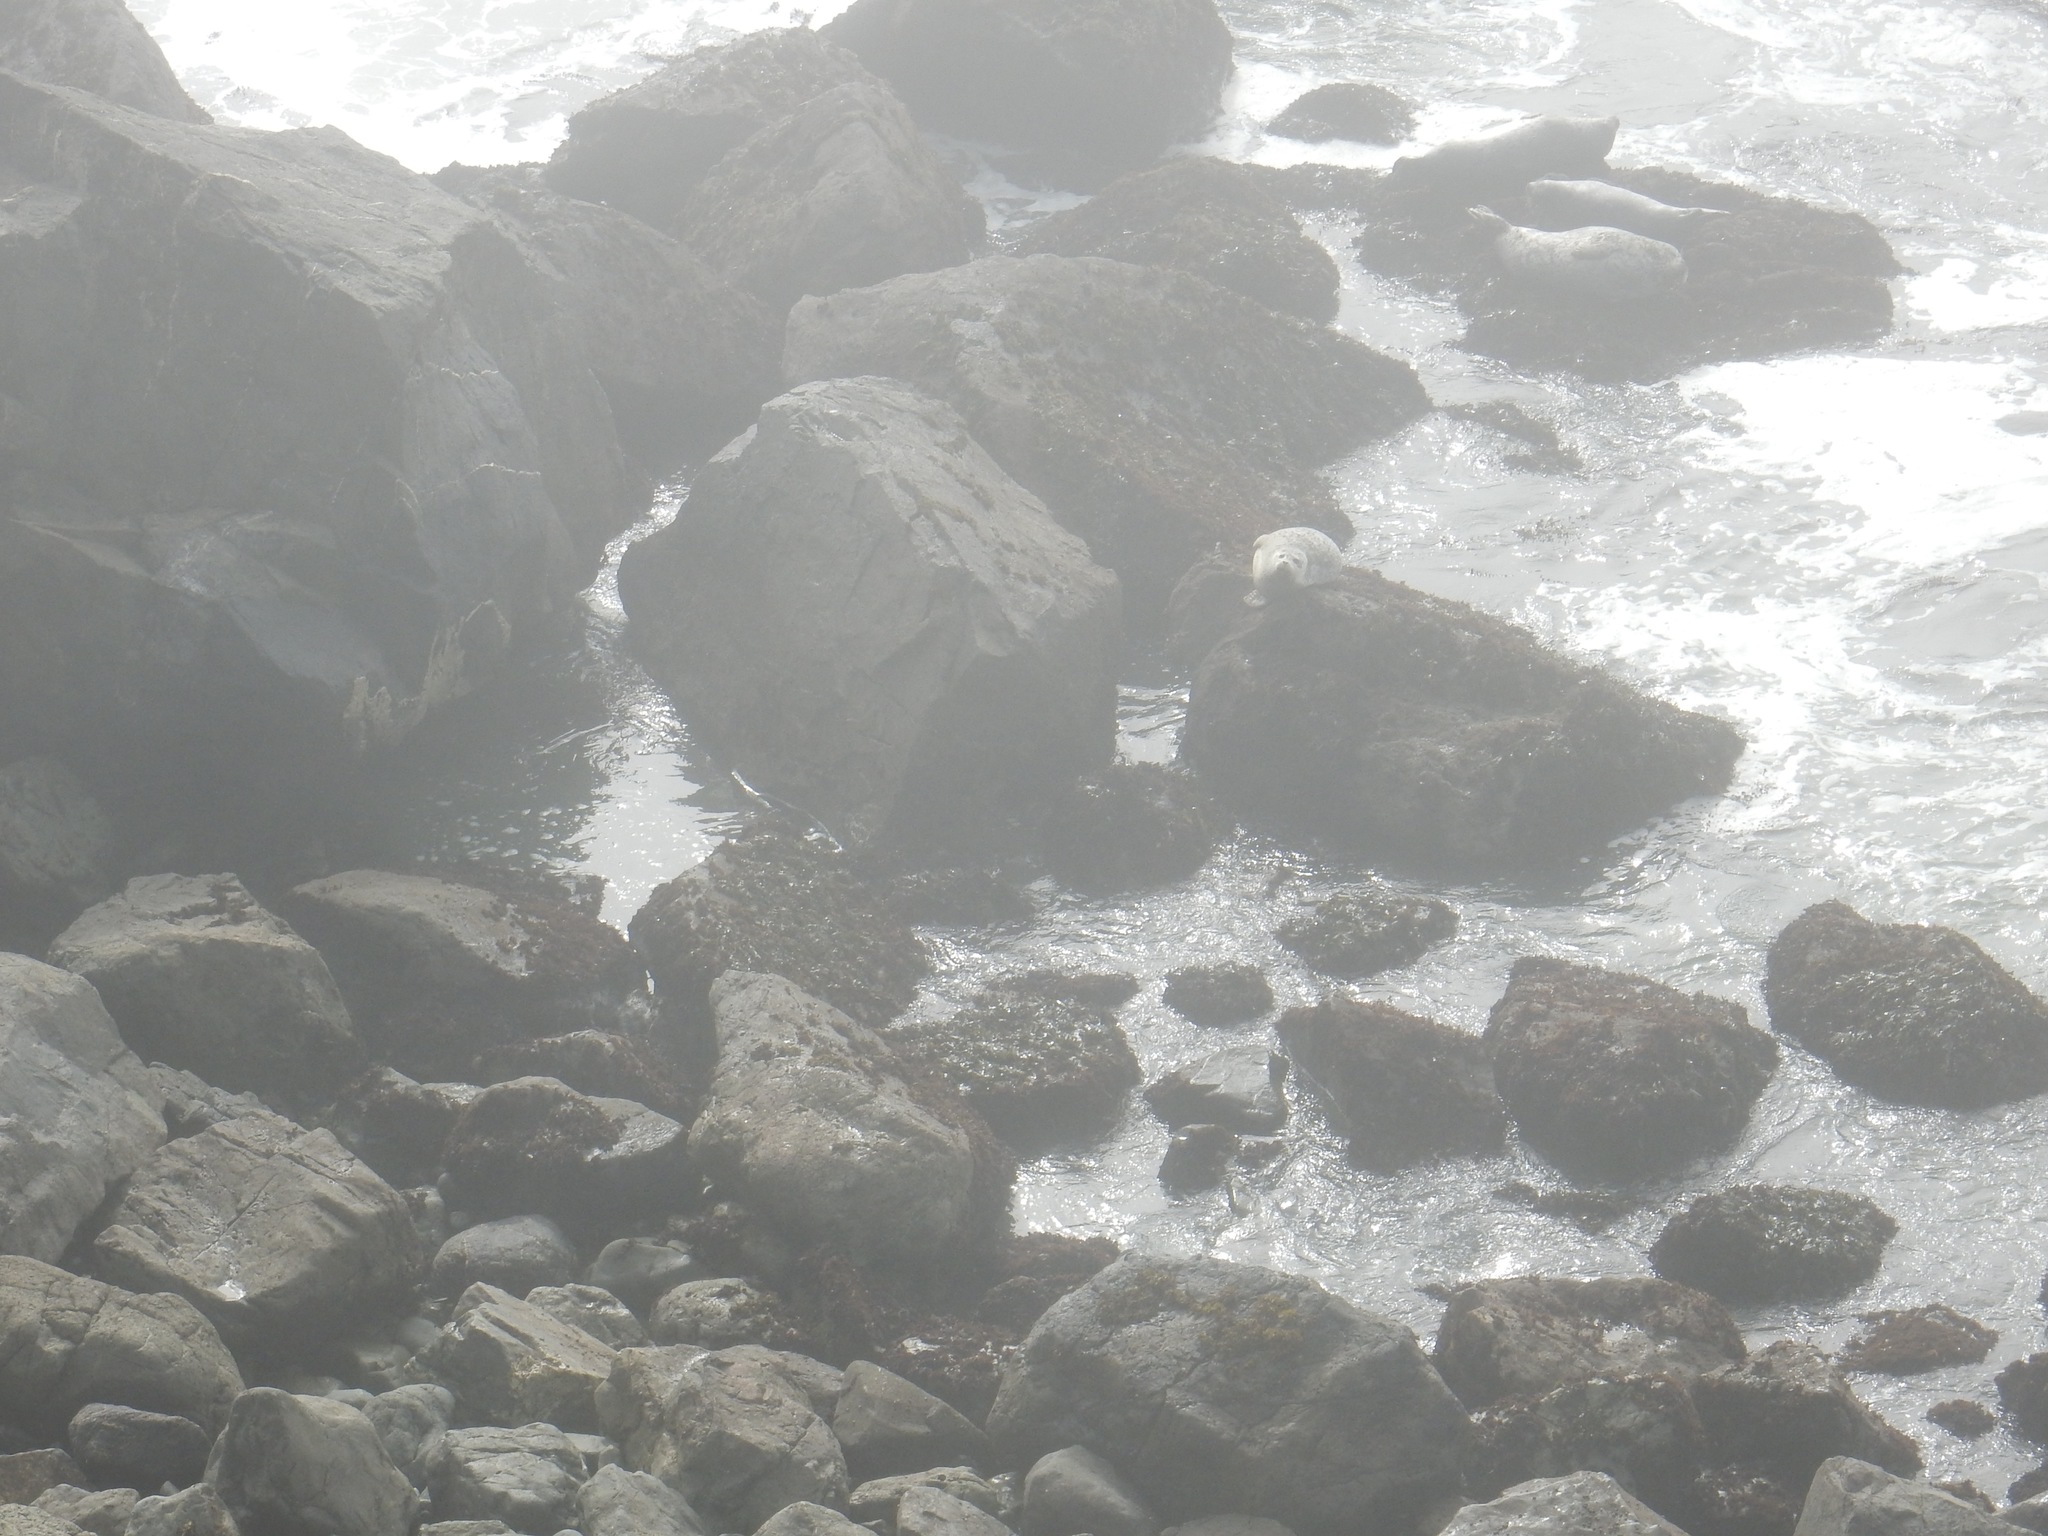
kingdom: Animalia
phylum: Chordata
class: Mammalia
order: Carnivora
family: Phocidae
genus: Phoca
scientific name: Phoca vitulina
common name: Harbor seal
